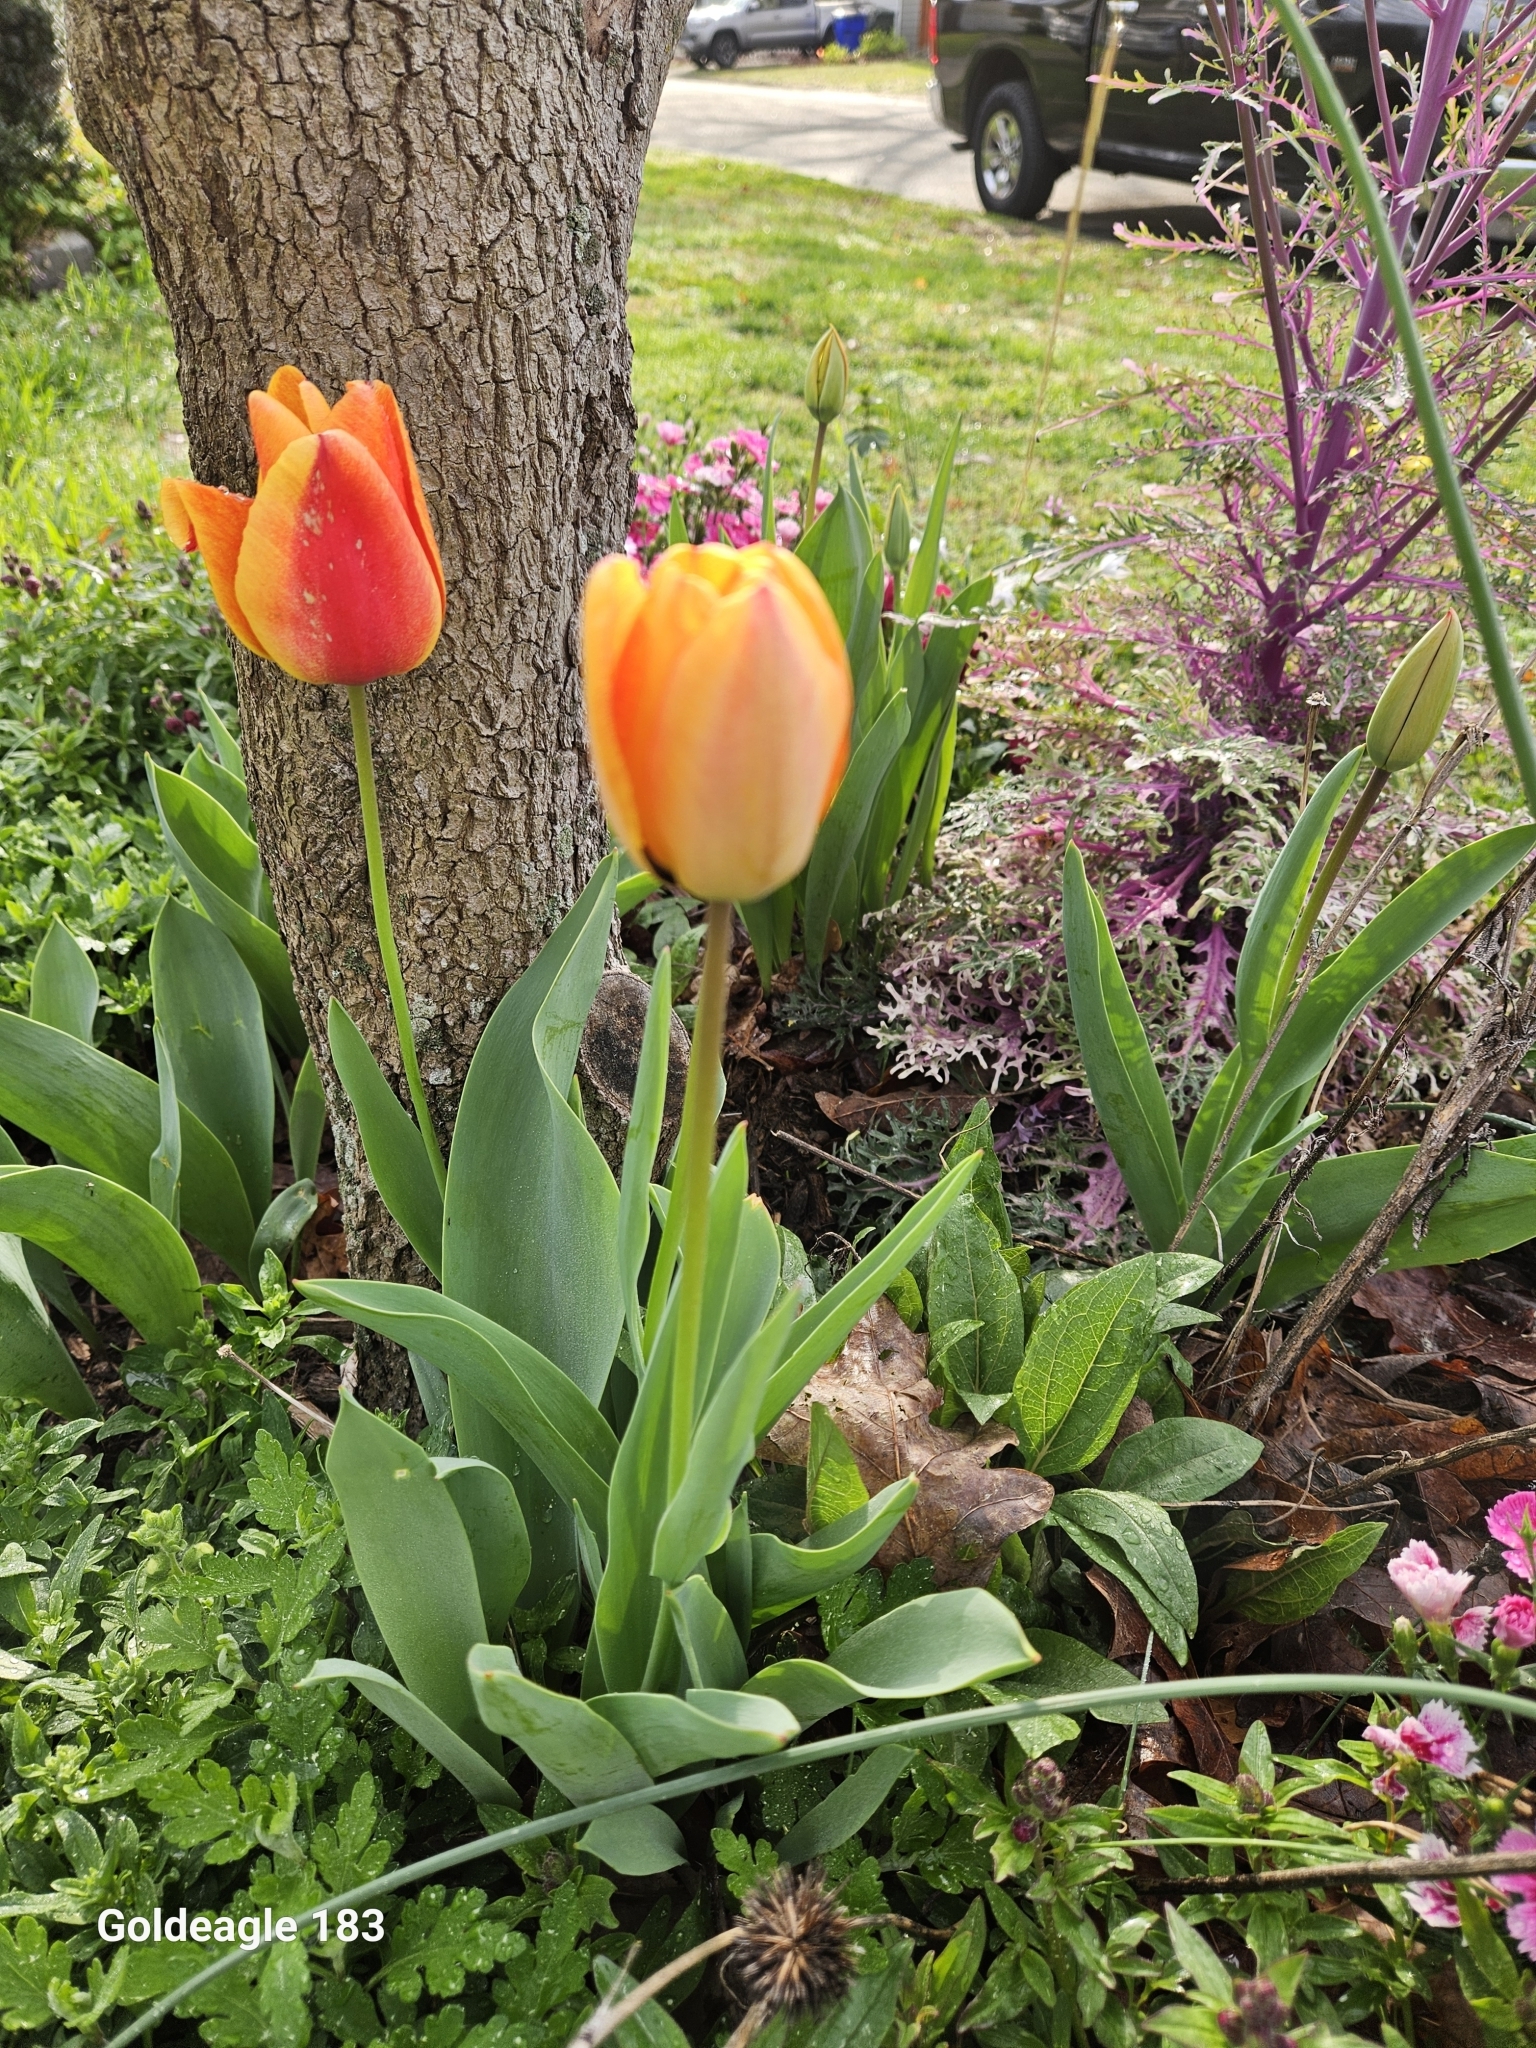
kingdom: Plantae
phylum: Tracheophyta
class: Liliopsida
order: Liliales
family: Liliaceae
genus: Tulipa
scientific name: Tulipa gesneriana
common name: Garden tulip
